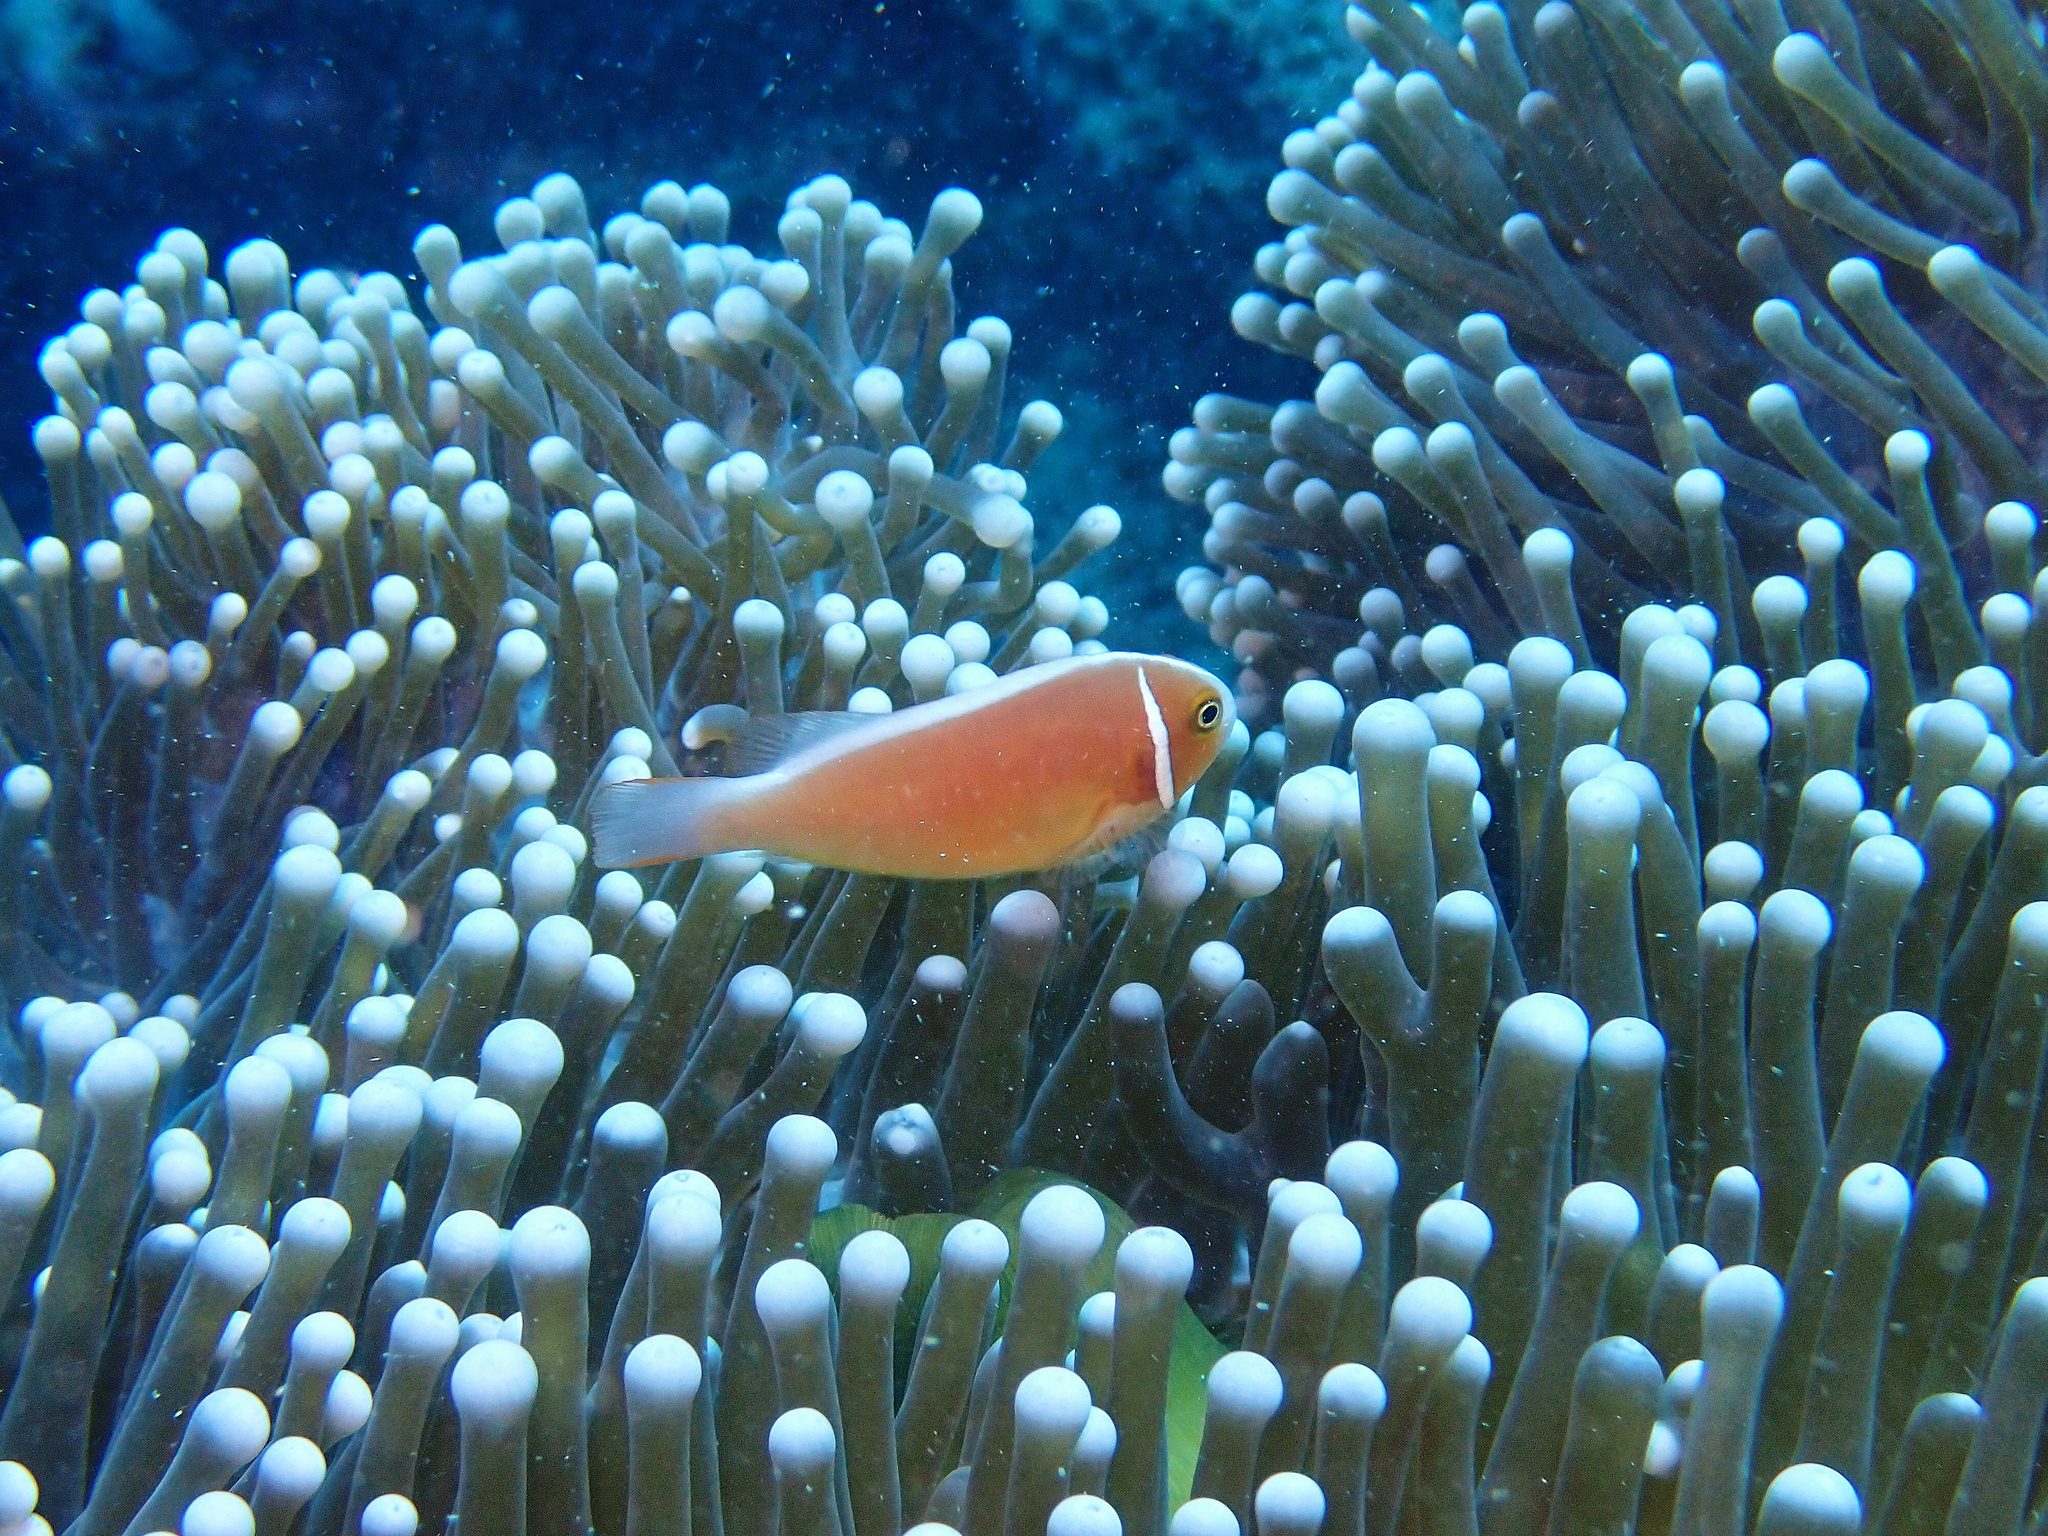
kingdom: Animalia
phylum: Chordata
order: Perciformes
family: Pomacentridae
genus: Amphiprion
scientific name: Amphiprion perideraion
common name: Pink anemonefish
